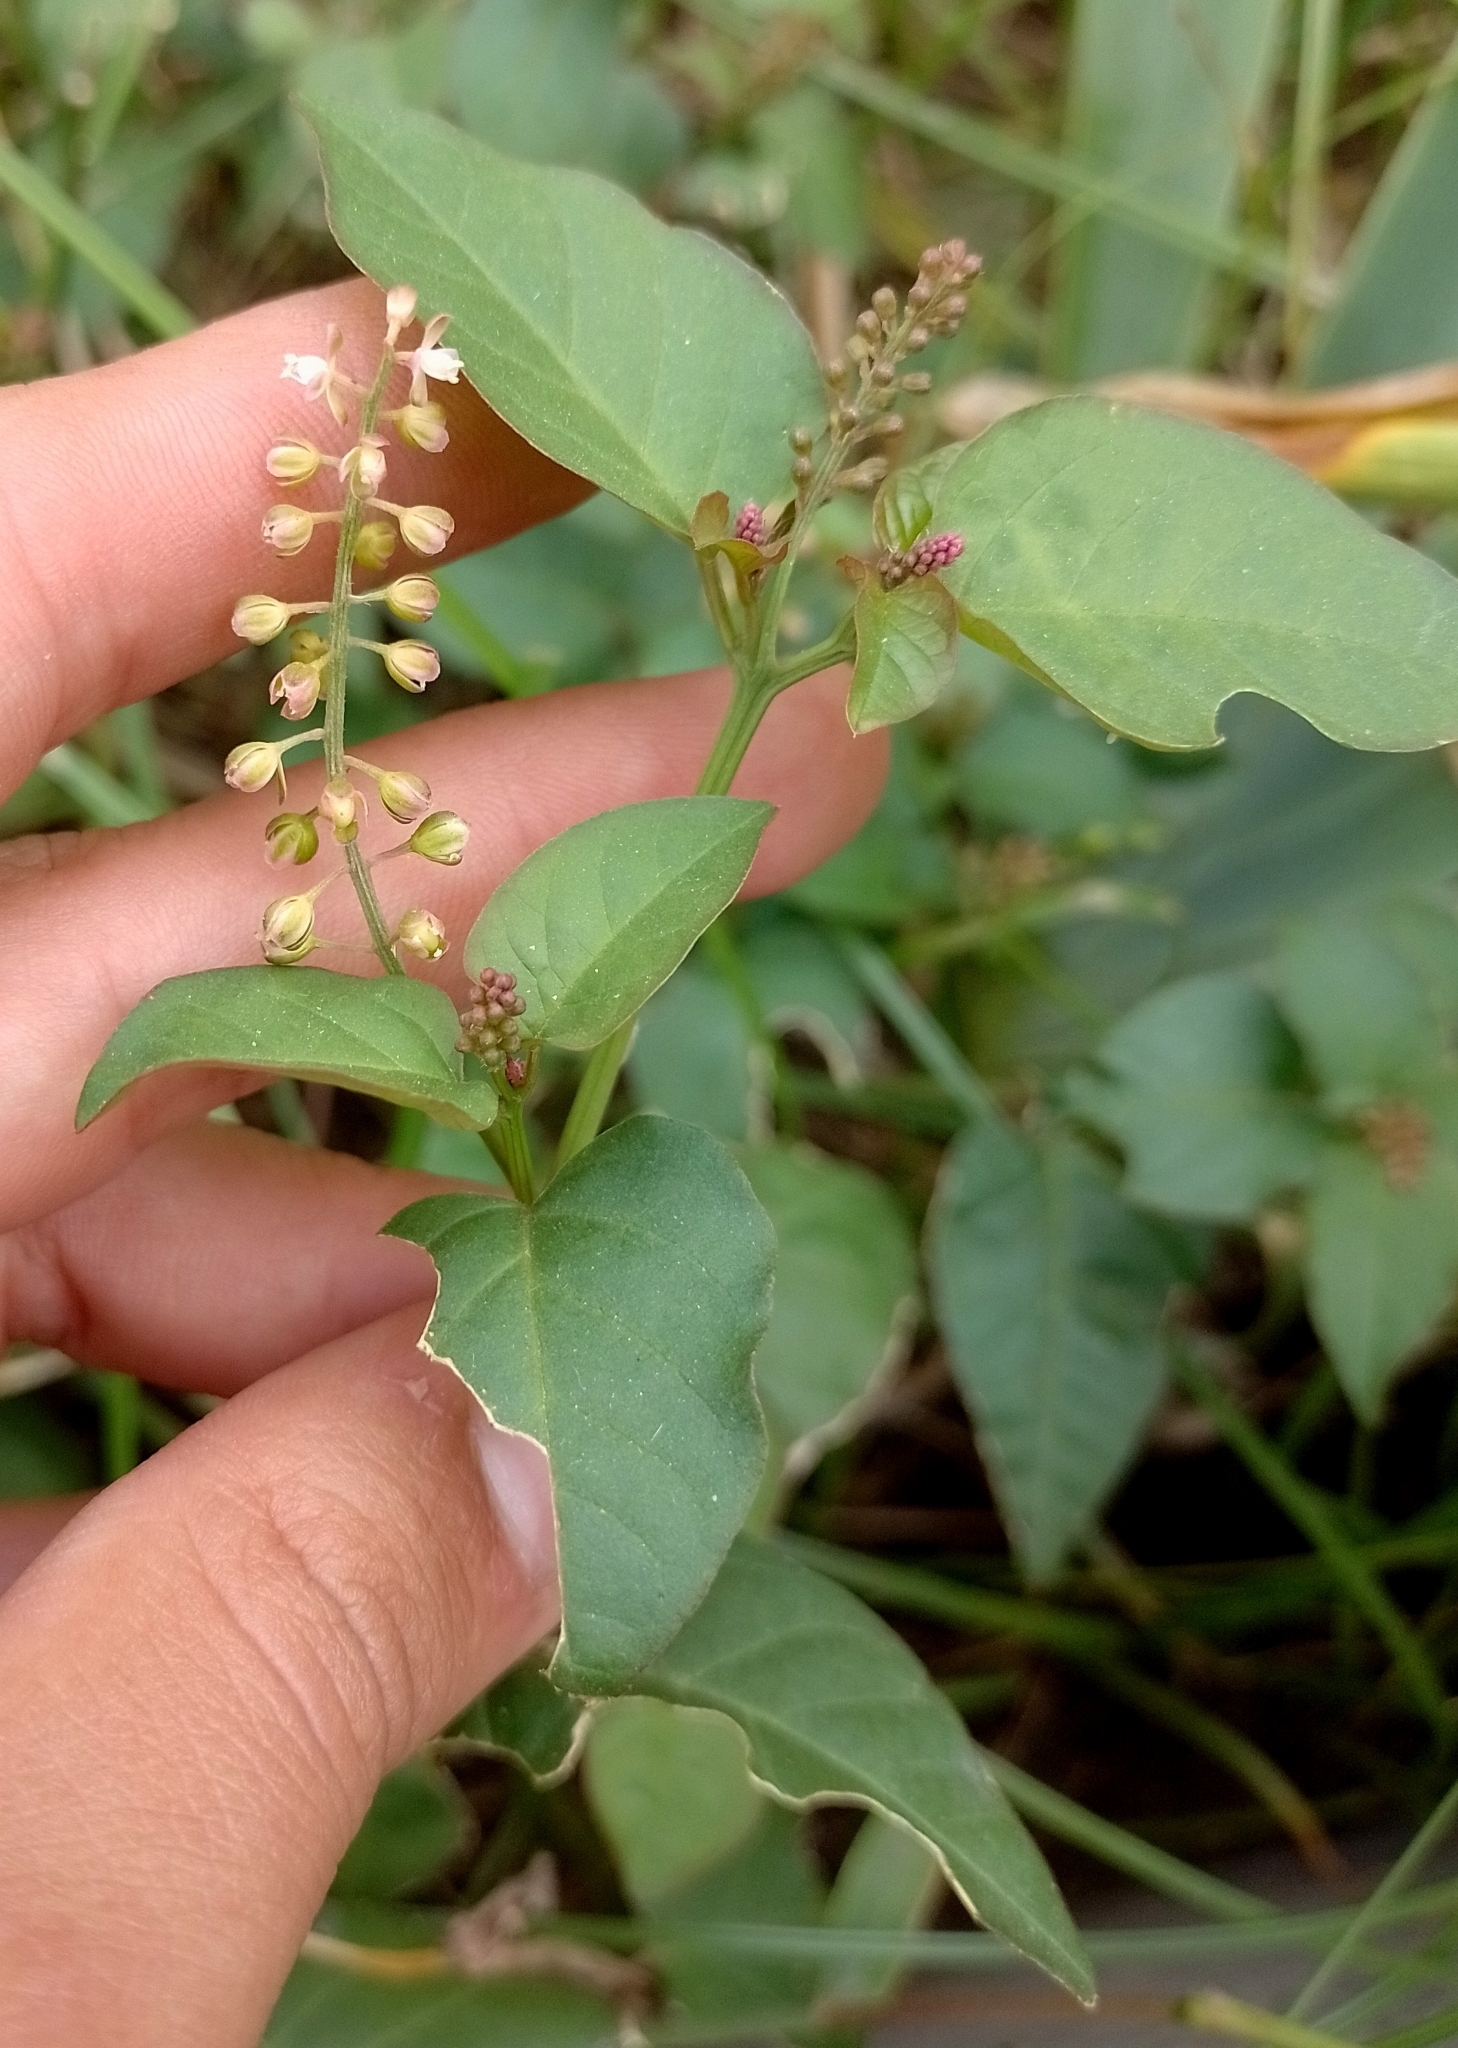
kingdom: Plantae
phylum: Tracheophyta
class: Magnoliopsida
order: Caryophyllales
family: Phytolaccaceae
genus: Rivina
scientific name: Rivina humilis
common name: Rougeplant
